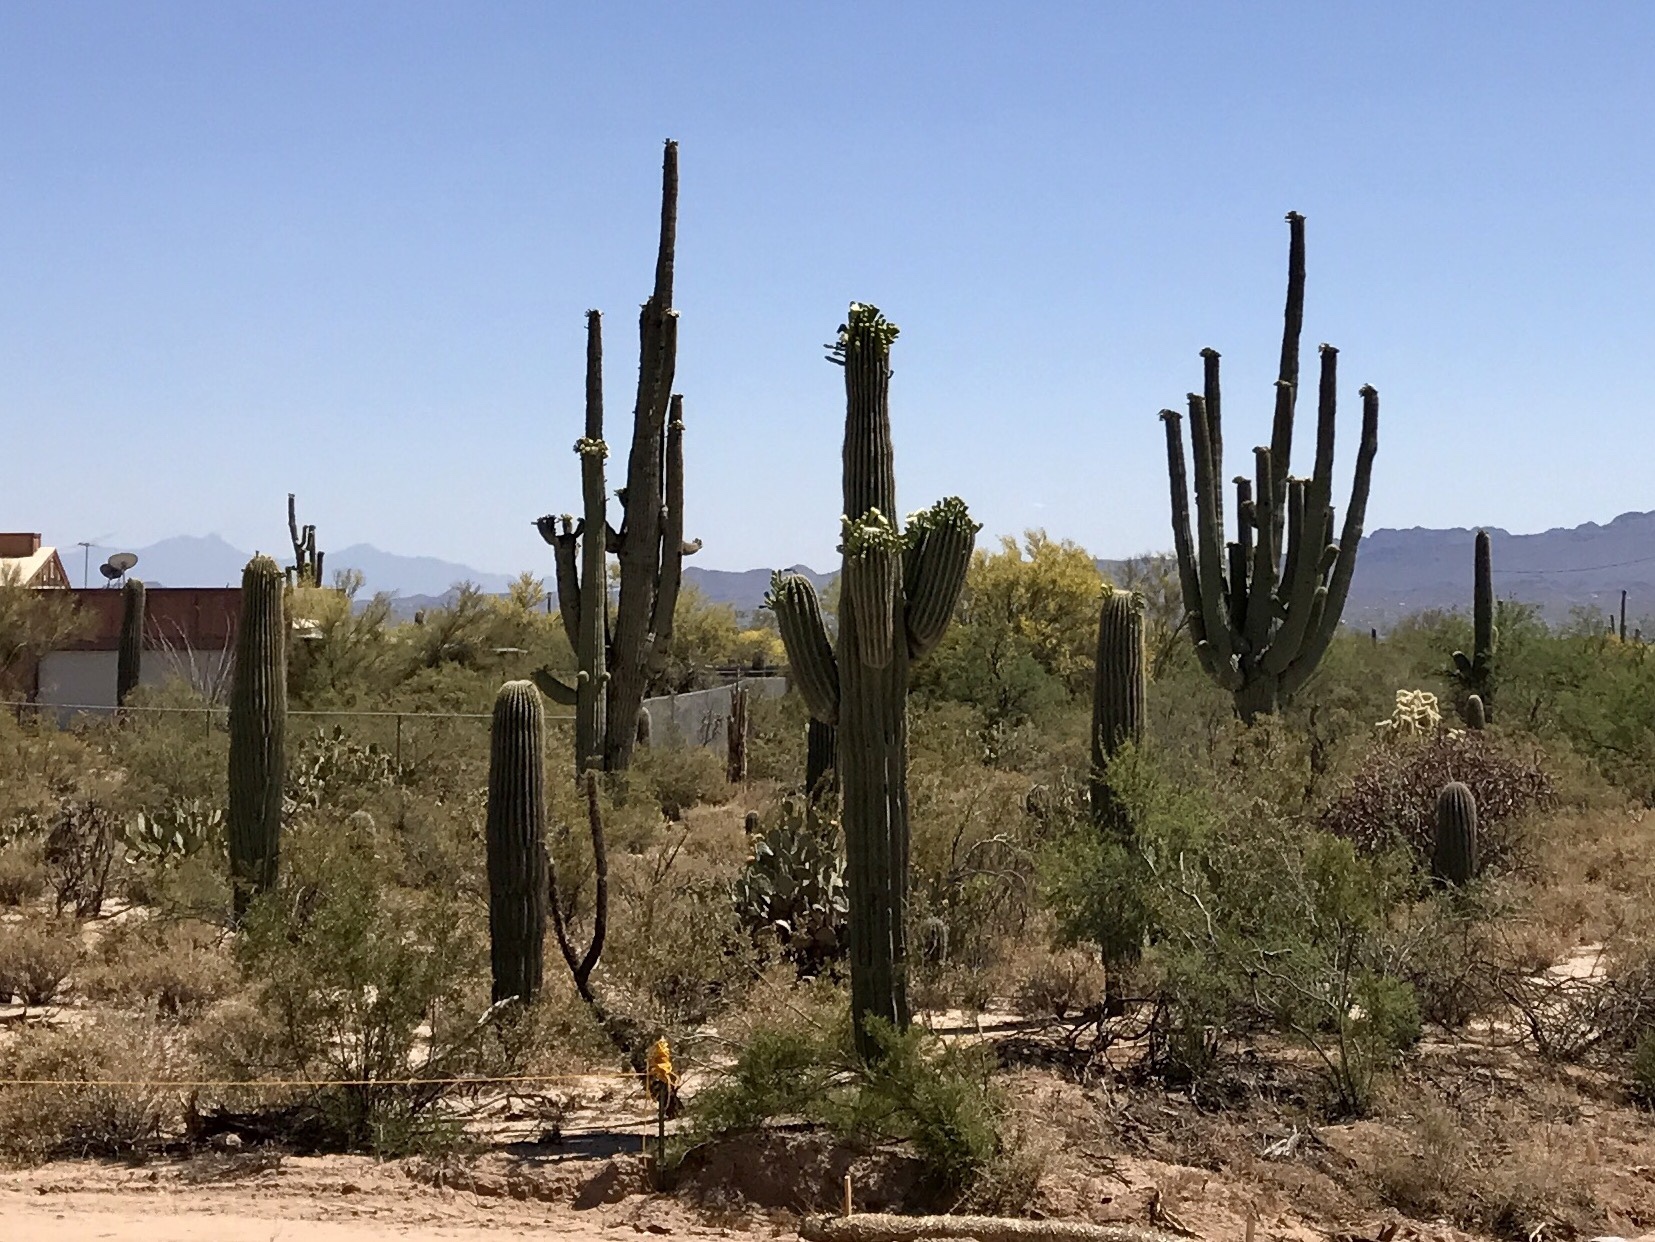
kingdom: Plantae
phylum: Tracheophyta
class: Magnoliopsida
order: Caryophyllales
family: Cactaceae
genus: Carnegiea
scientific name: Carnegiea gigantea
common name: Saguaro
